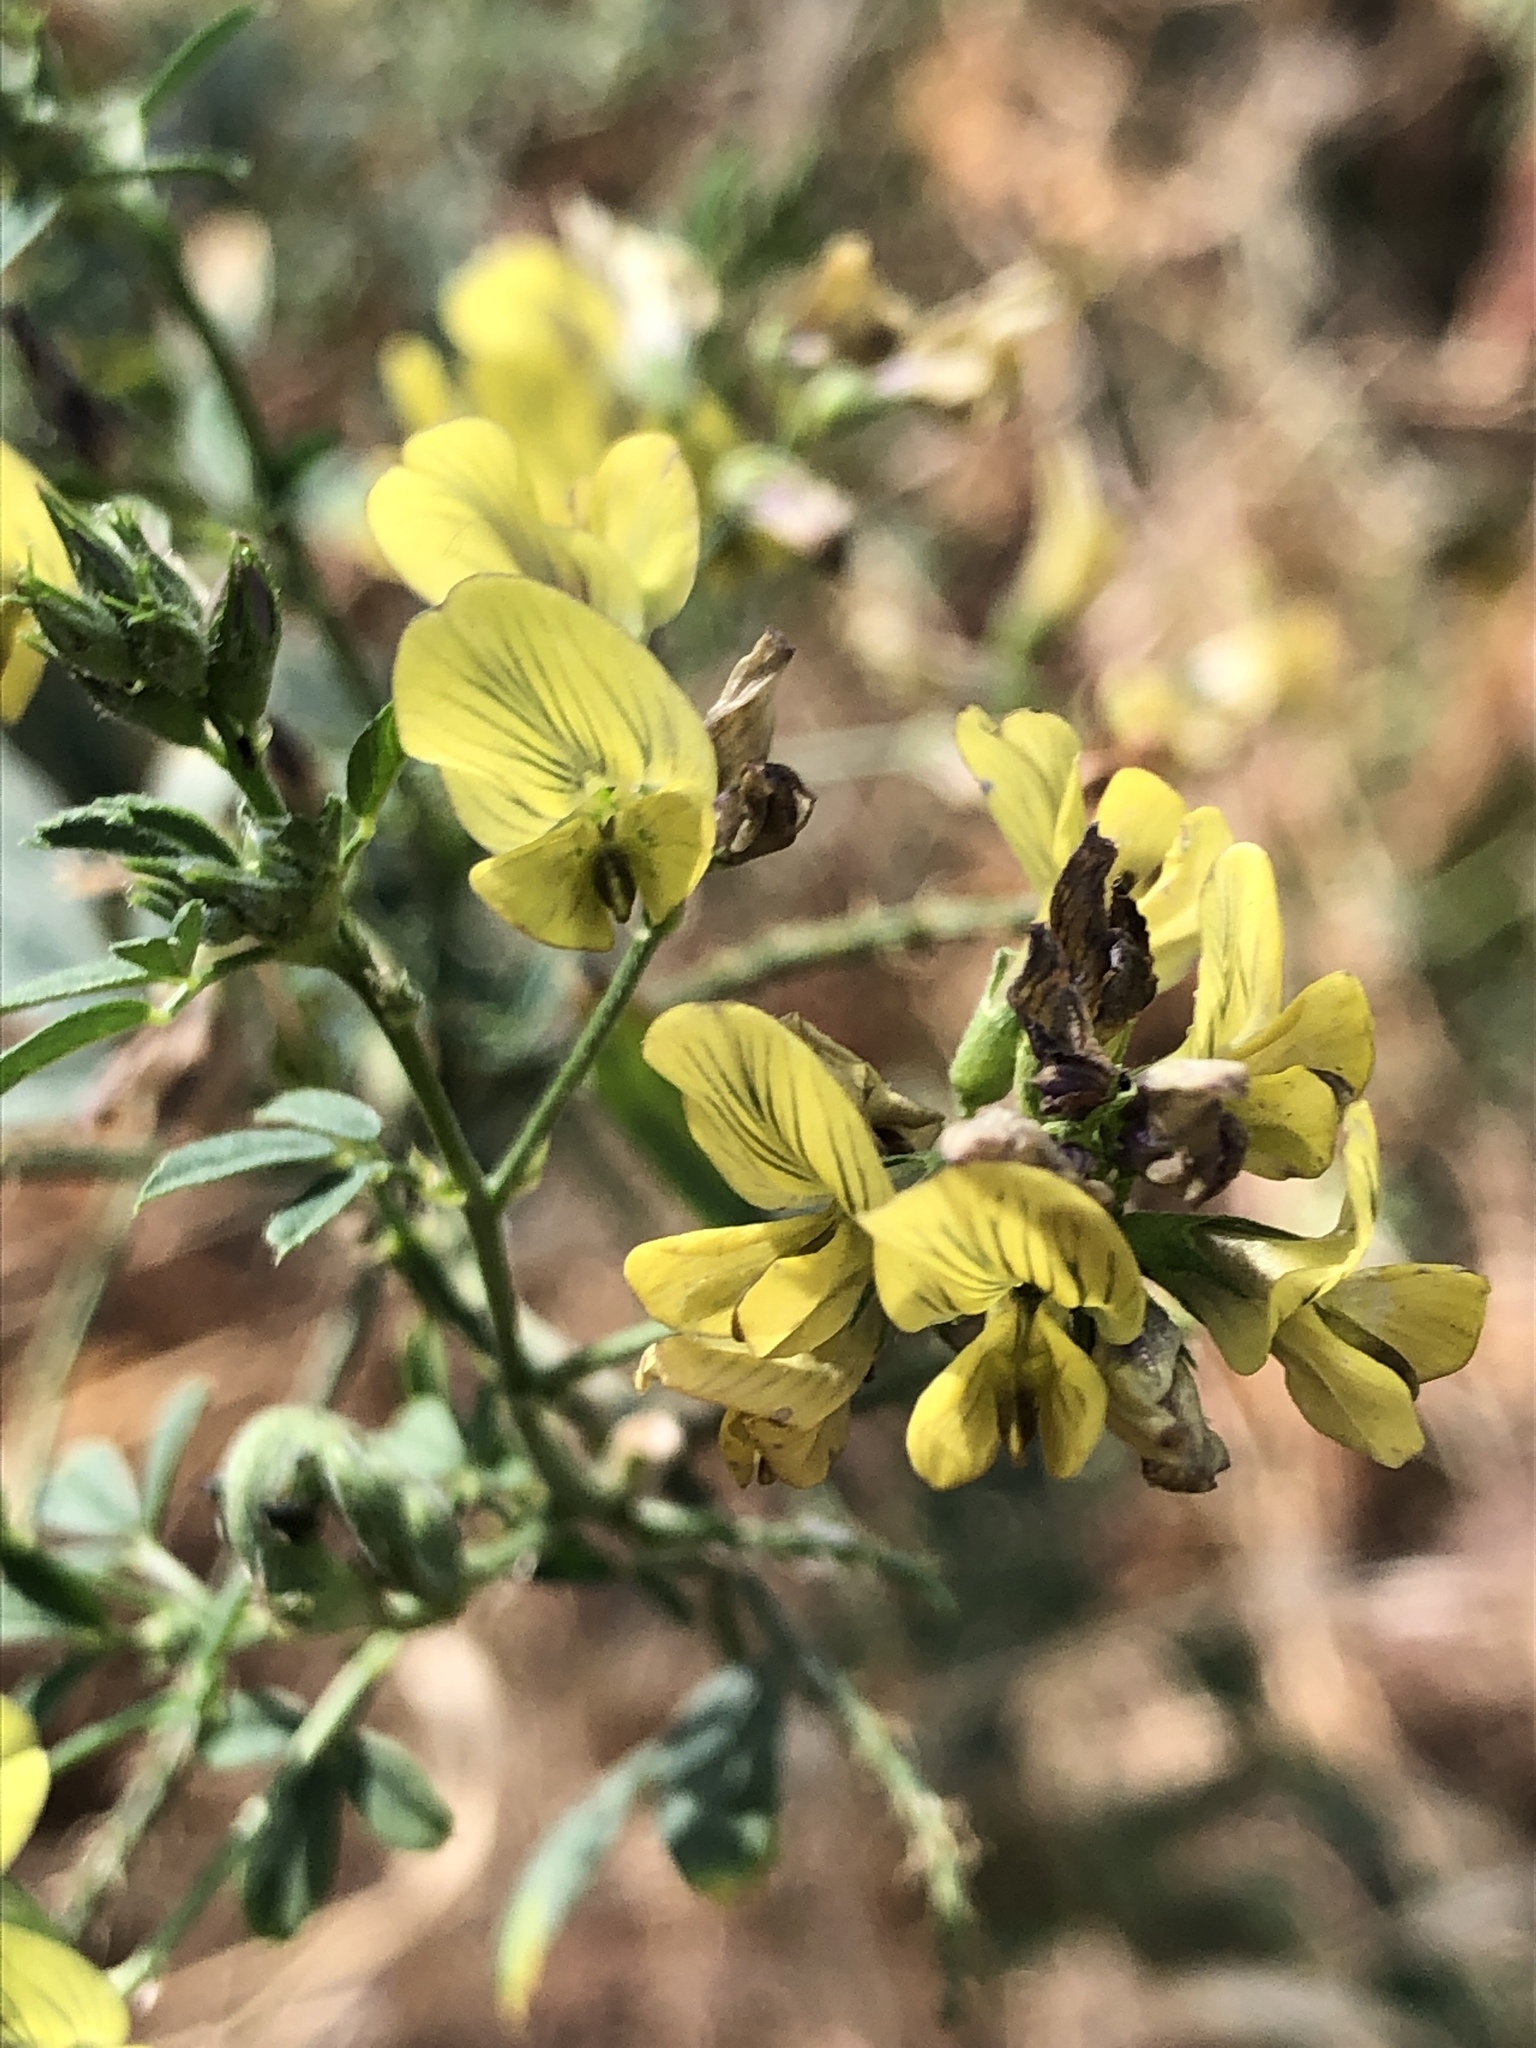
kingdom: Plantae
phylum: Tracheophyta
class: Magnoliopsida
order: Fabales
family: Fabaceae
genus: Medicago
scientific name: Medicago falcata
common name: Sickle medick
